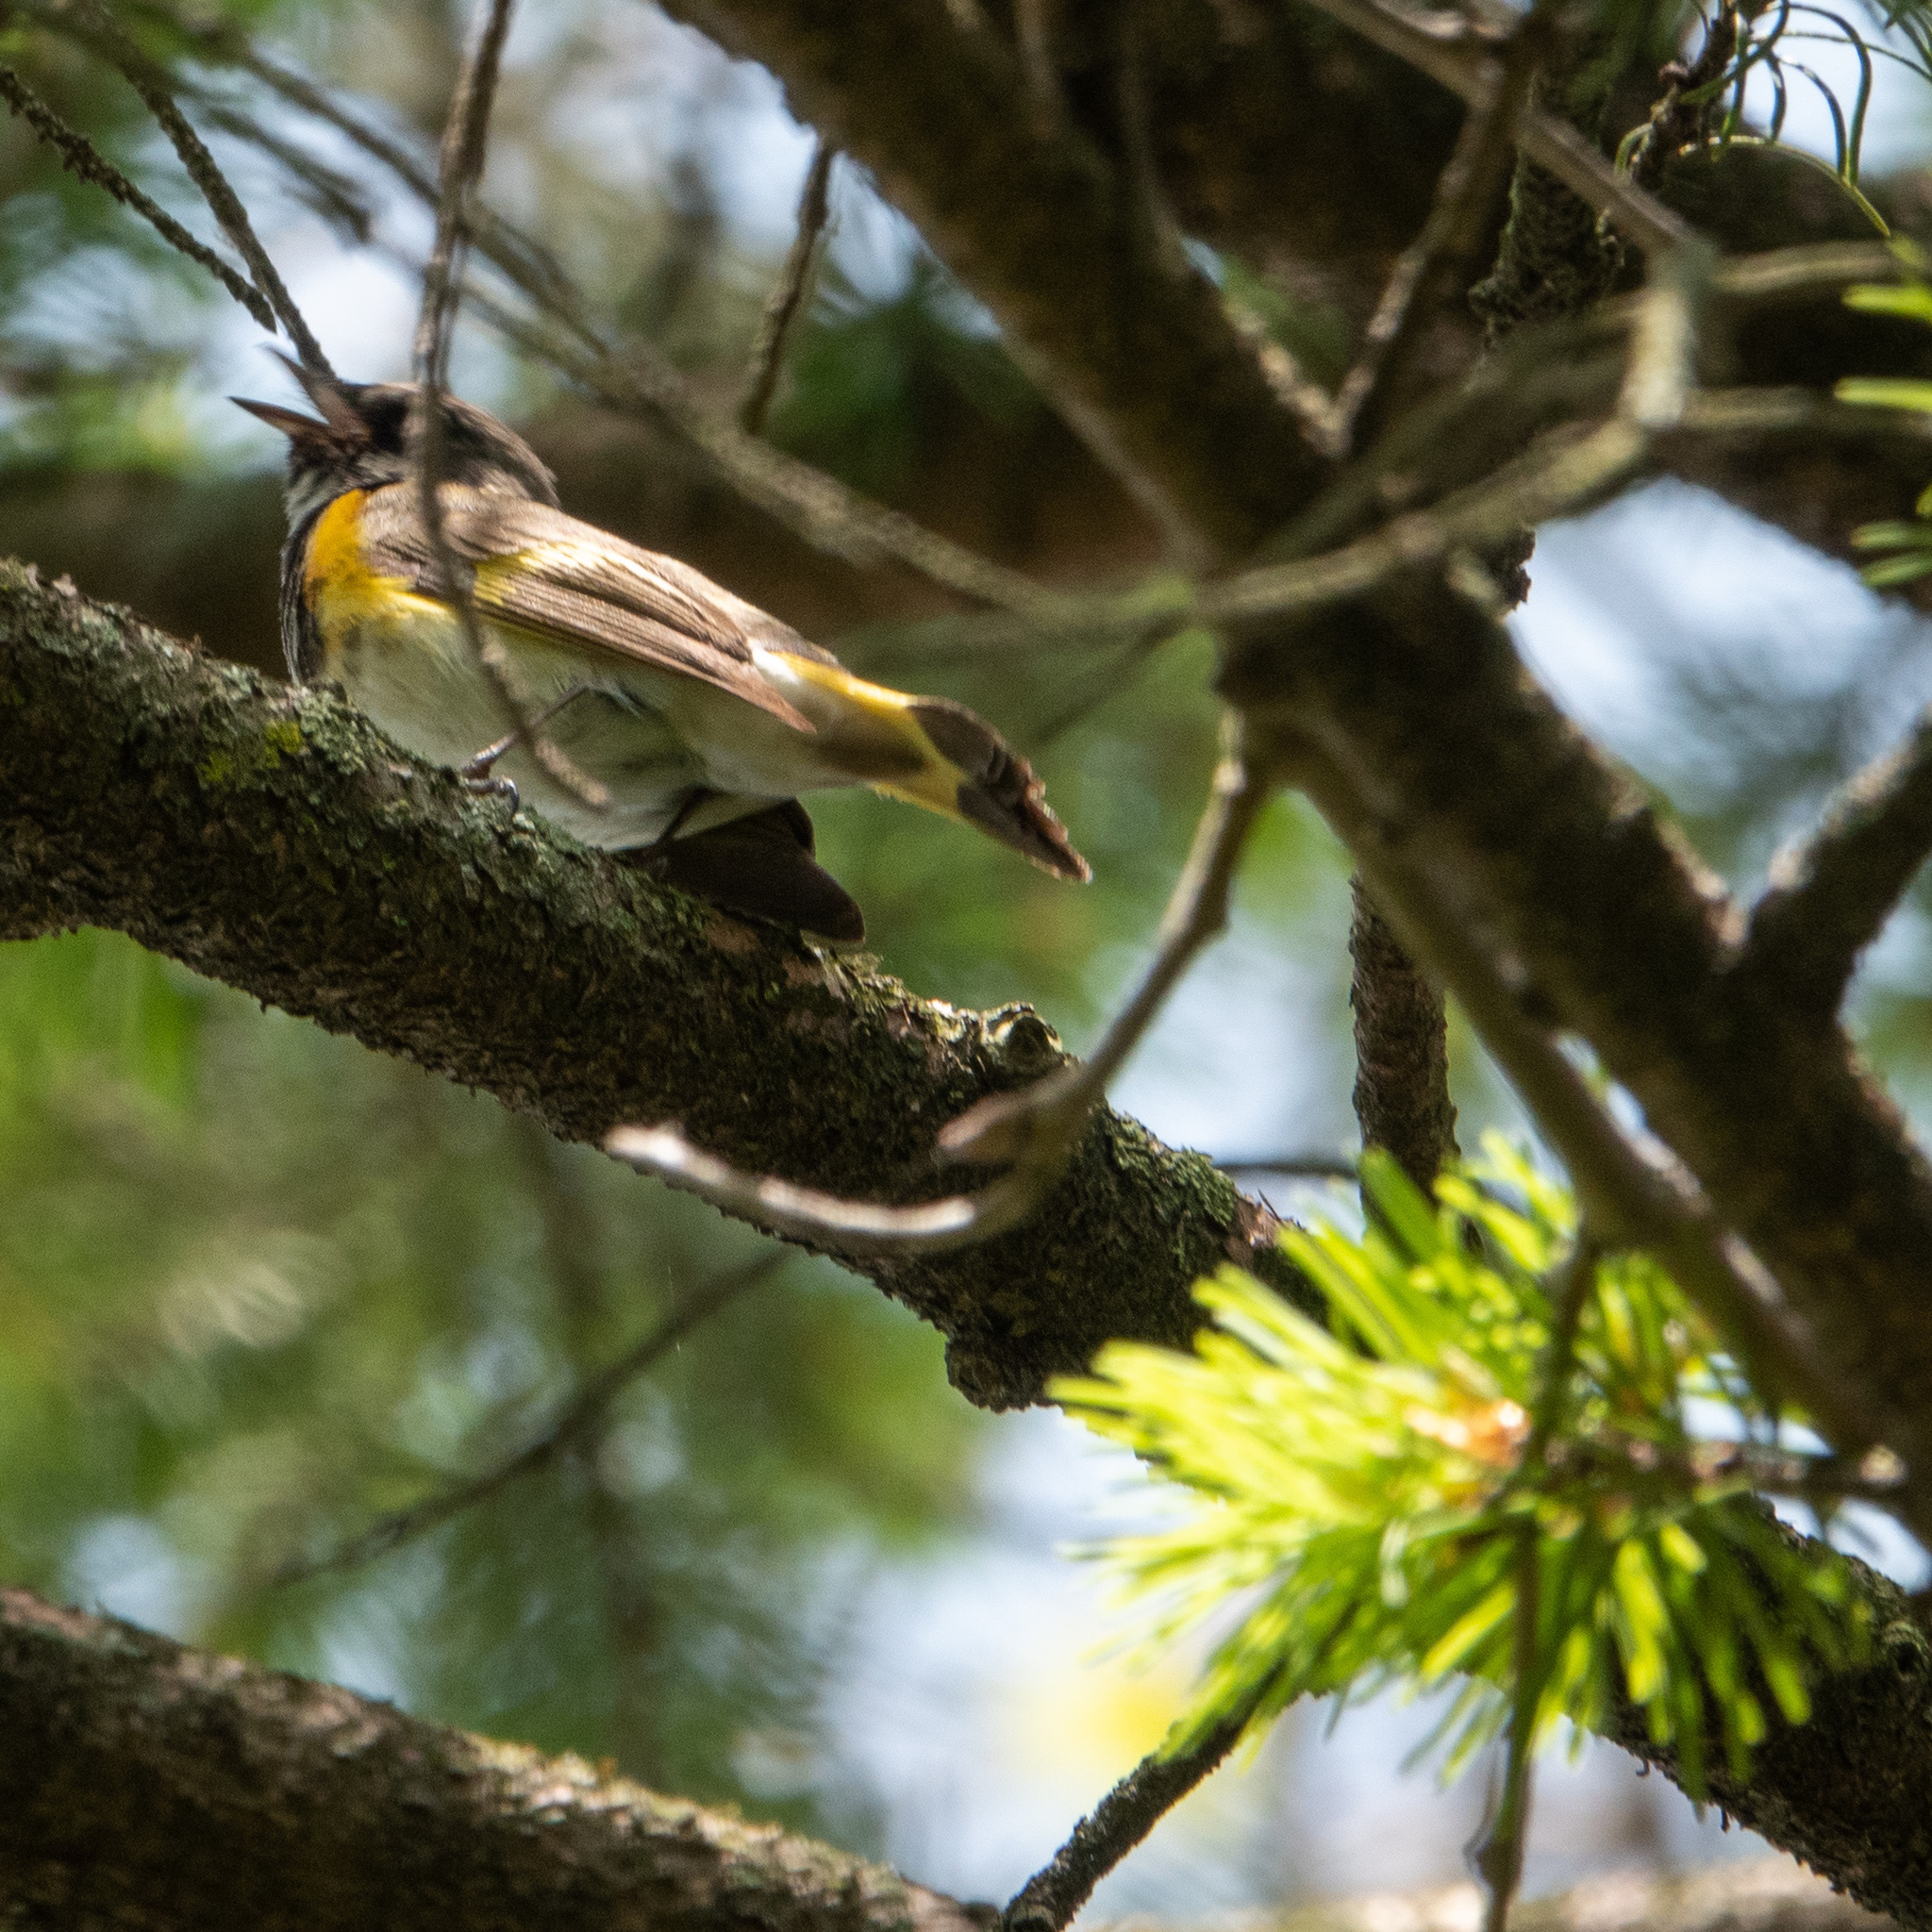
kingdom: Animalia
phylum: Chordata
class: Aves
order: Passeriformes
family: Parulidae
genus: Setophaga
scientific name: Setophaga ruticilla
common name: American redstart
